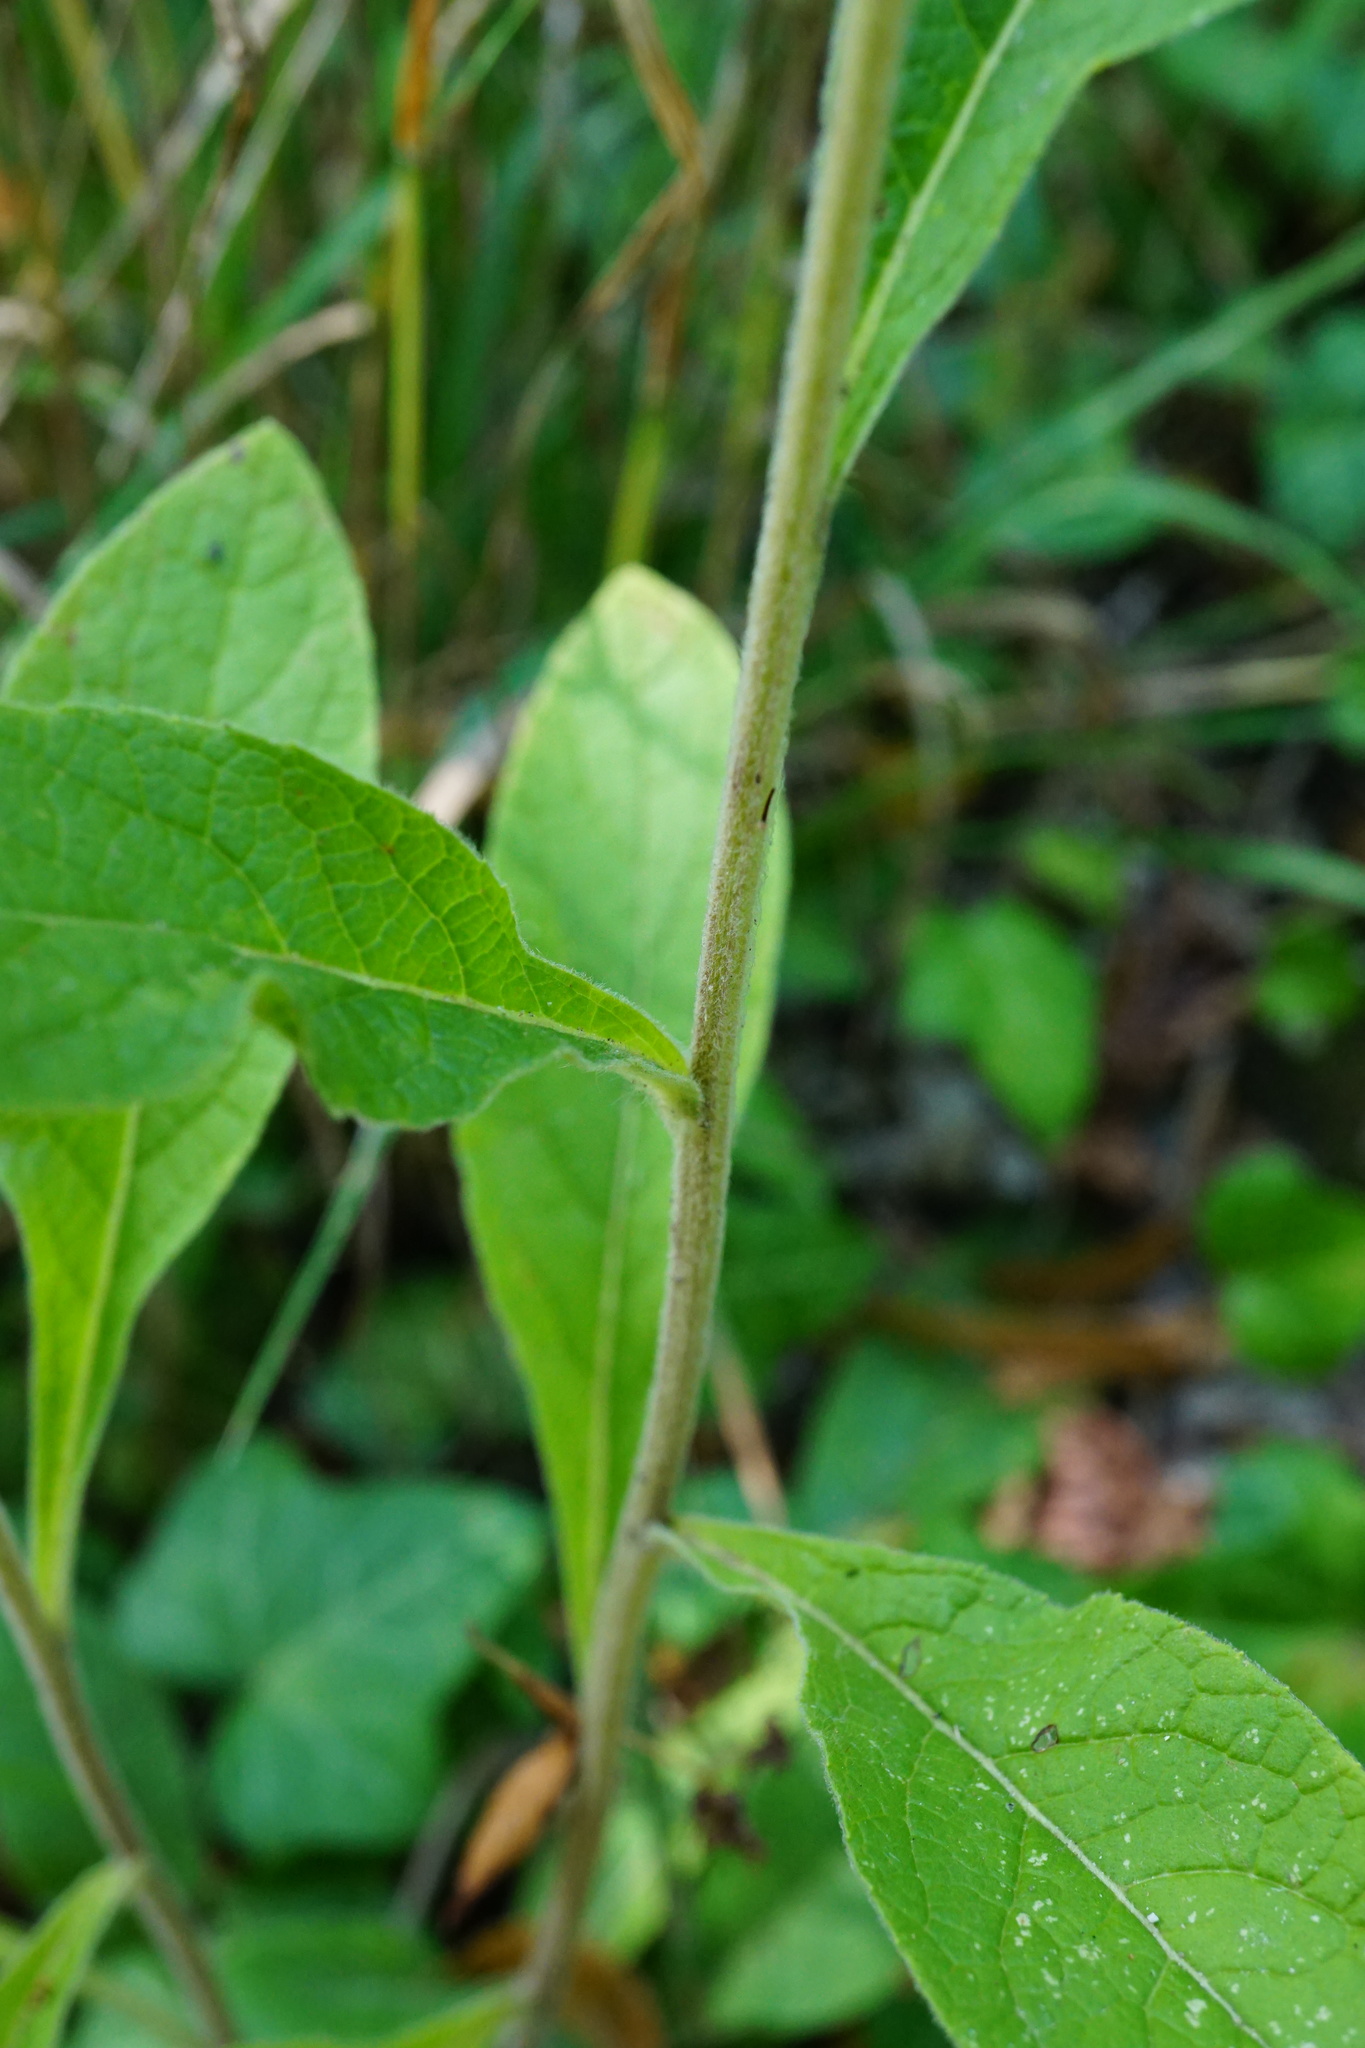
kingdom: Plantae
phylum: Tracheophyta
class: Magnoliopsida
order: Asterales
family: Asteraceae
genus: Pentanema
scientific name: Pentanema squarrosum
